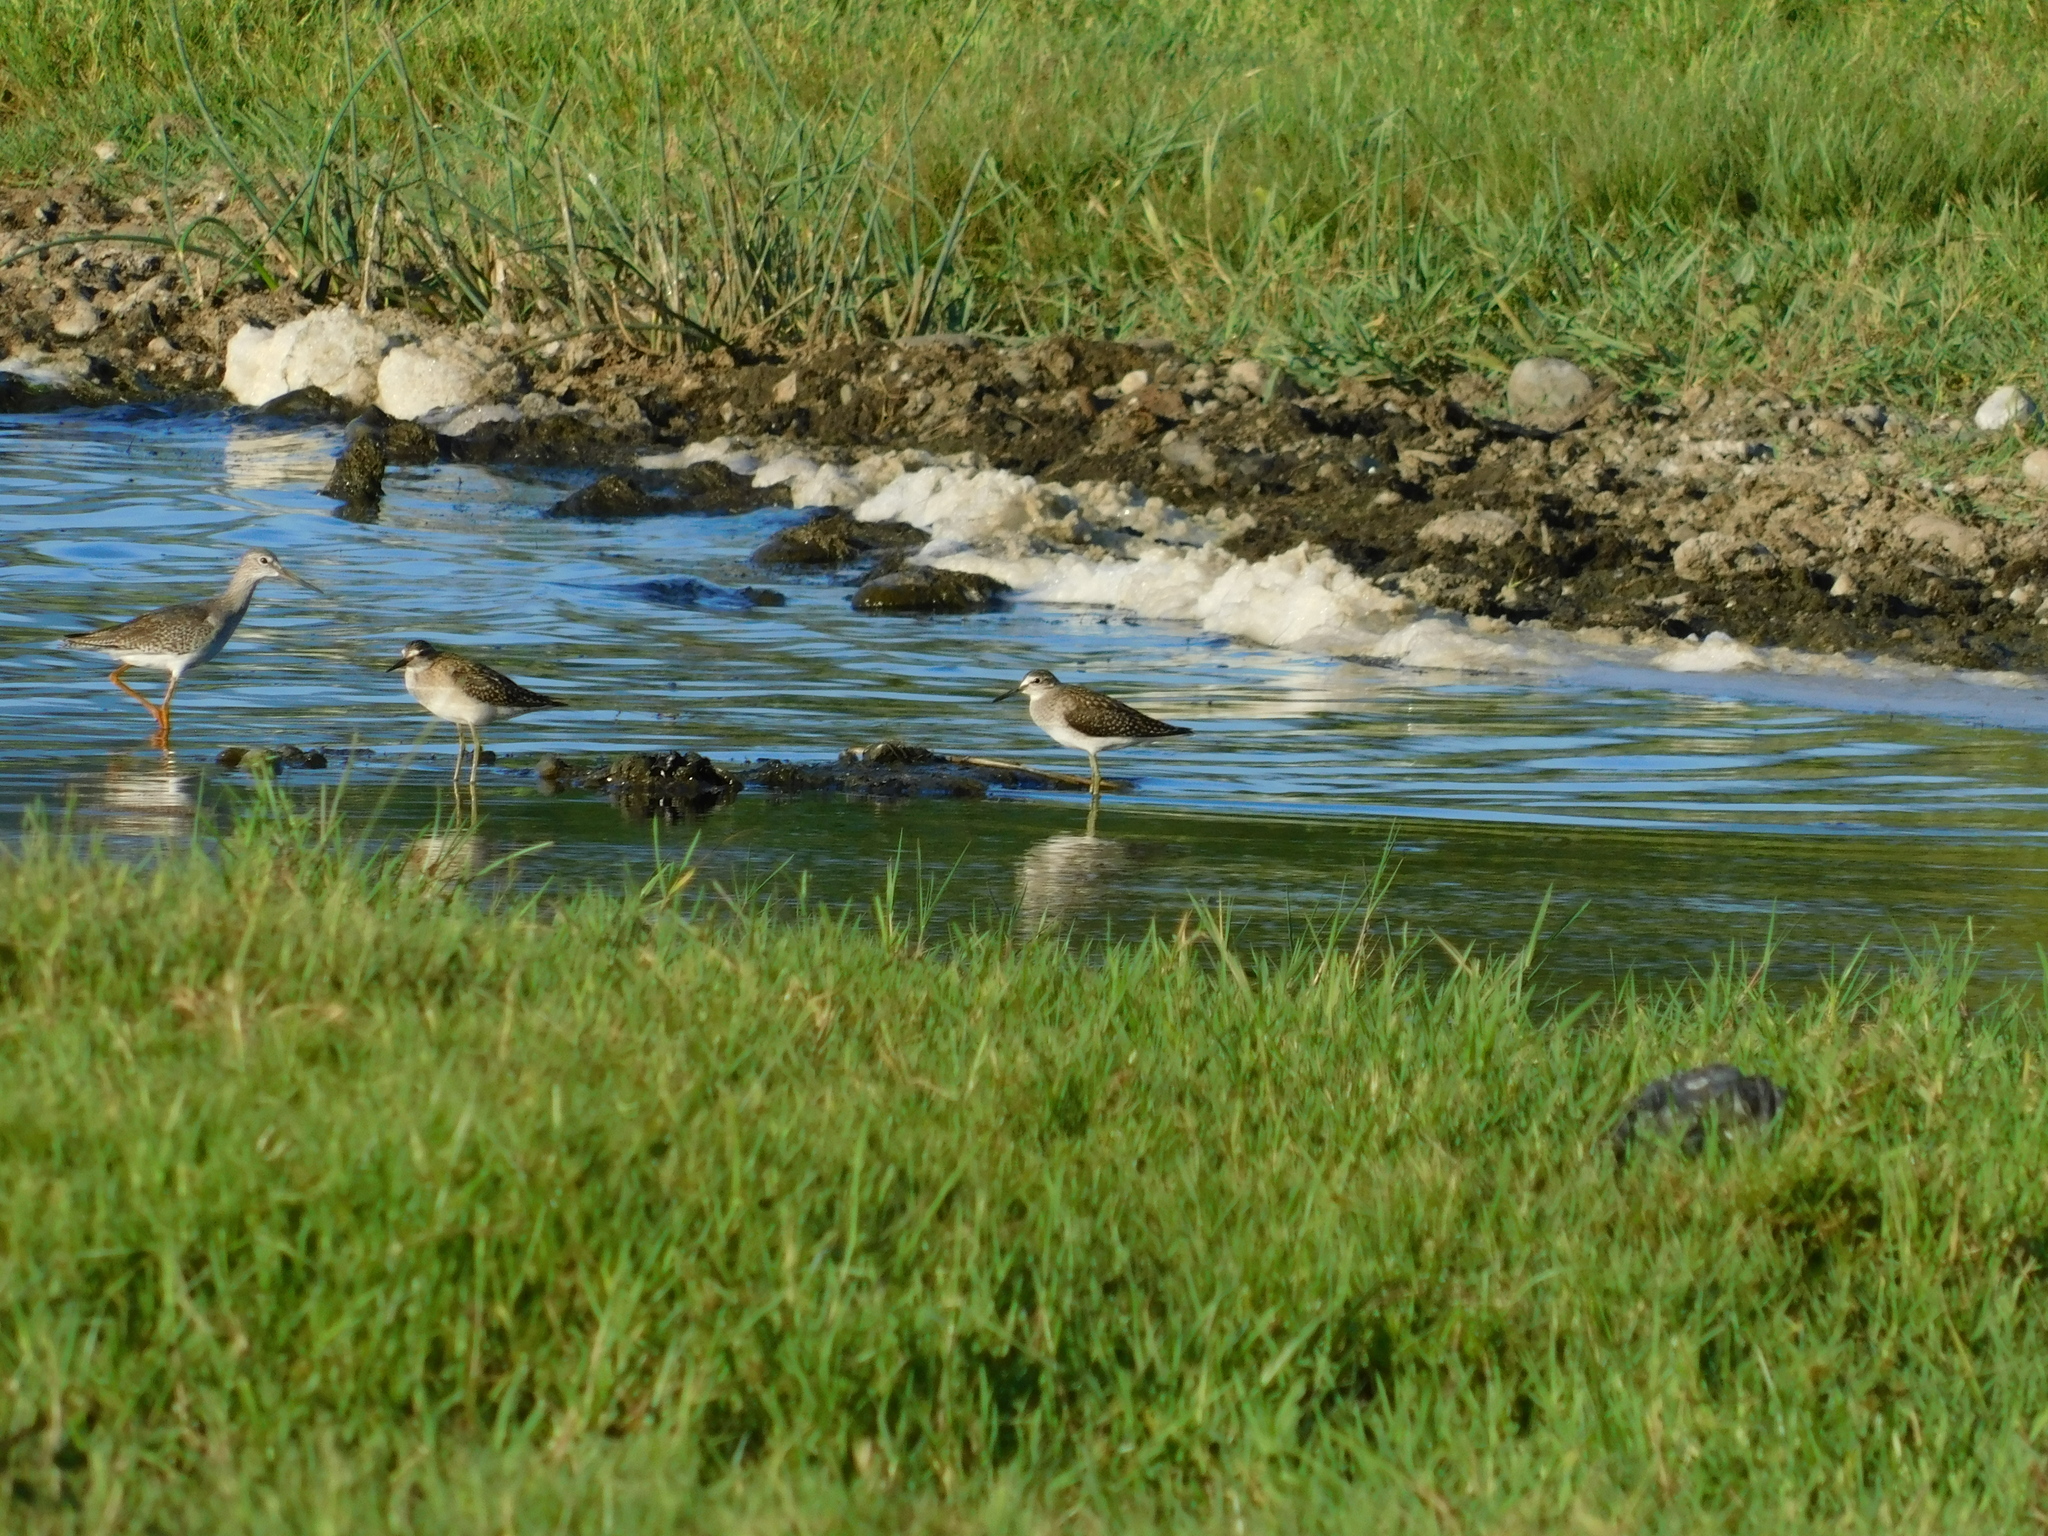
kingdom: Animalia
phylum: Chordata
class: Aves
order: Charadriiformes
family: Scolopacidae
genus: Tringa
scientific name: Tringa glareola
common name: Wood sandpiper
